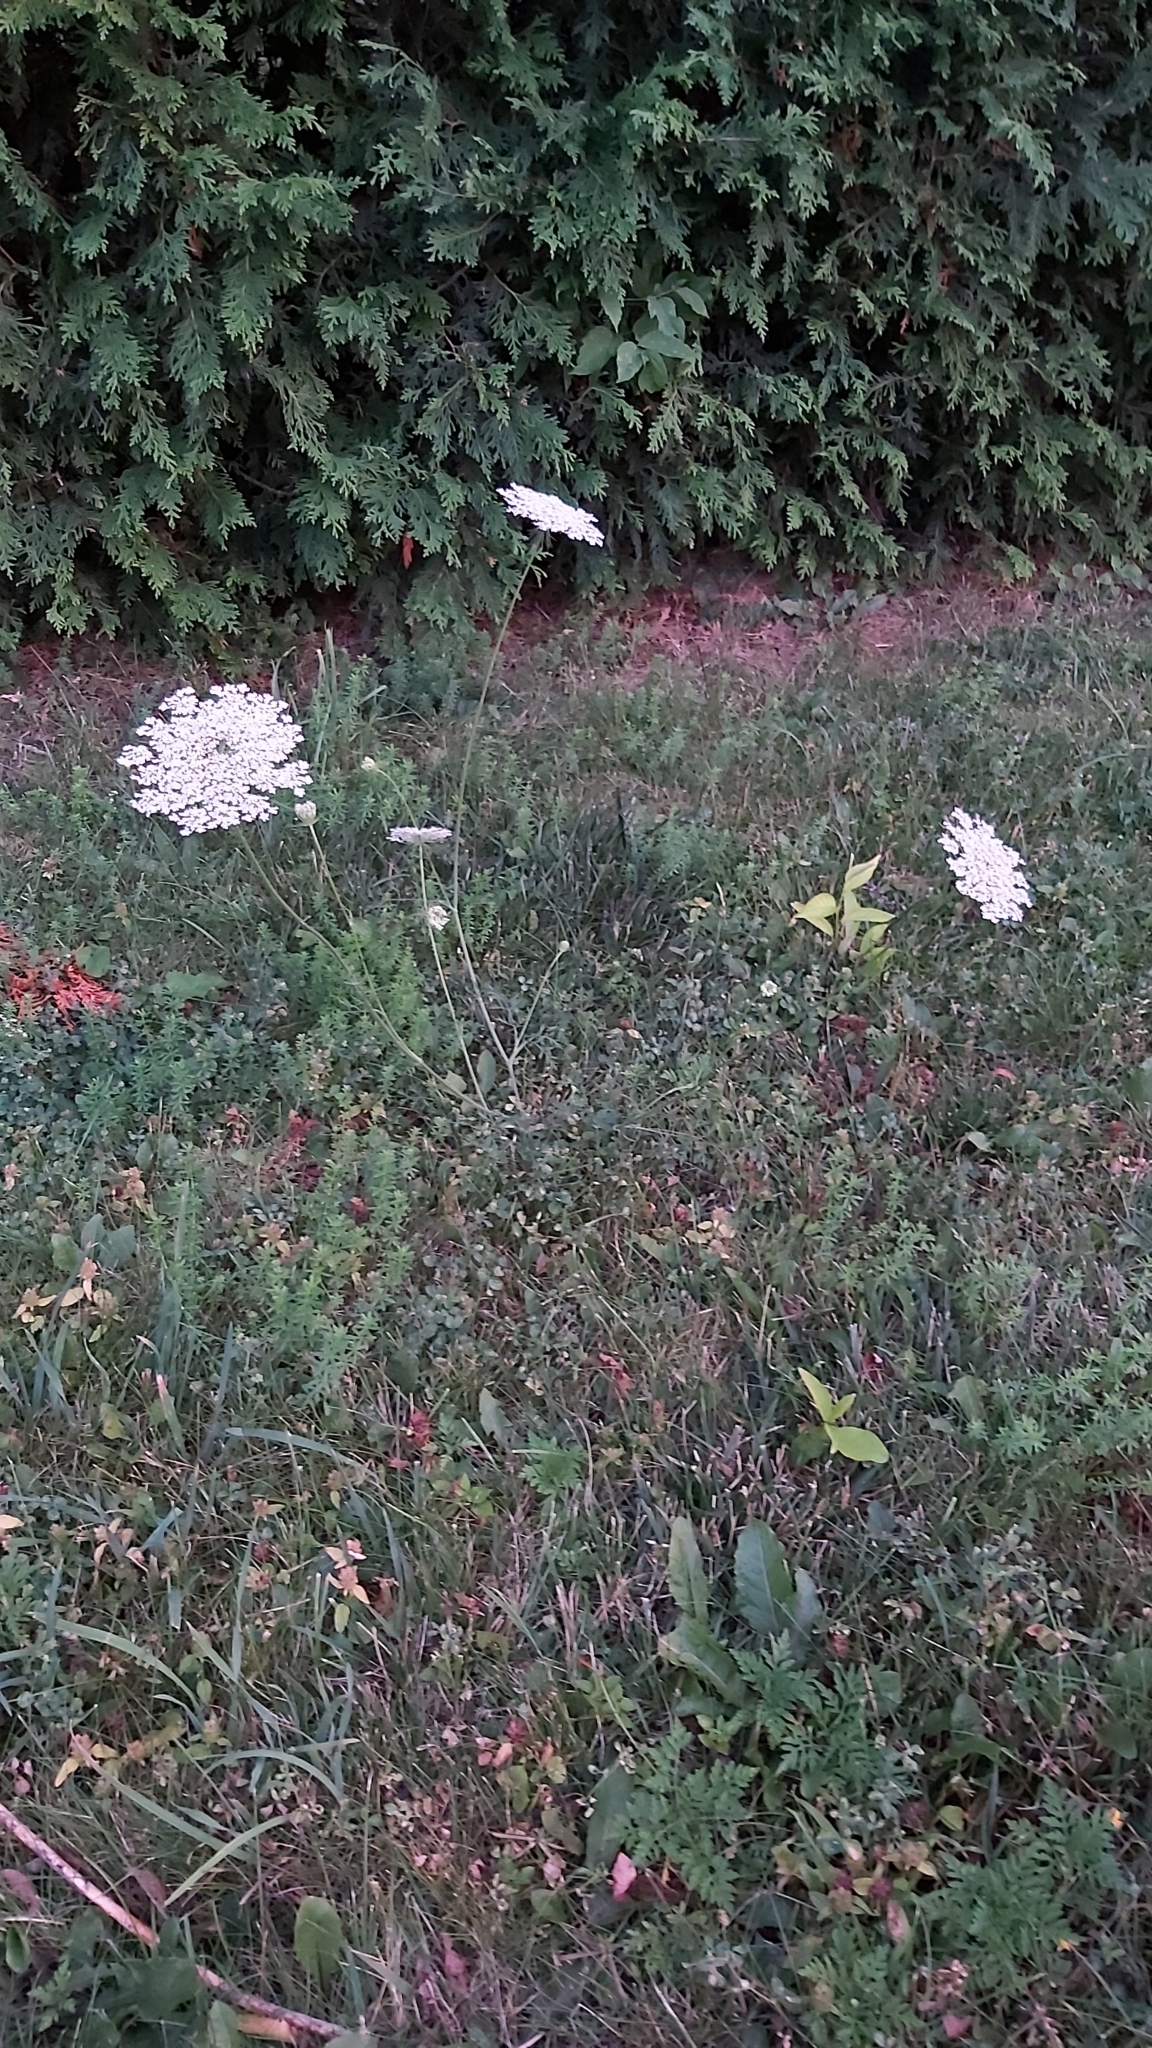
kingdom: Plantae
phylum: Tracheophyta
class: Magnoliopsida
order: Apiales
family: Apiaceae
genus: Daucus
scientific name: Daucus carota
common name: Wild carrot
